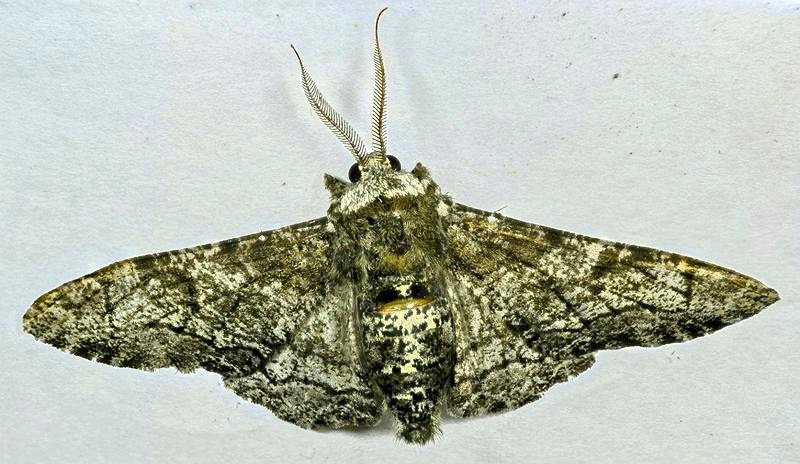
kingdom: Animalia
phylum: Arthropoda
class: Insecta
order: Lepidoptera
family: Geometridae
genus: Biston
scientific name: Biston betularia
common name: Peppered moth
